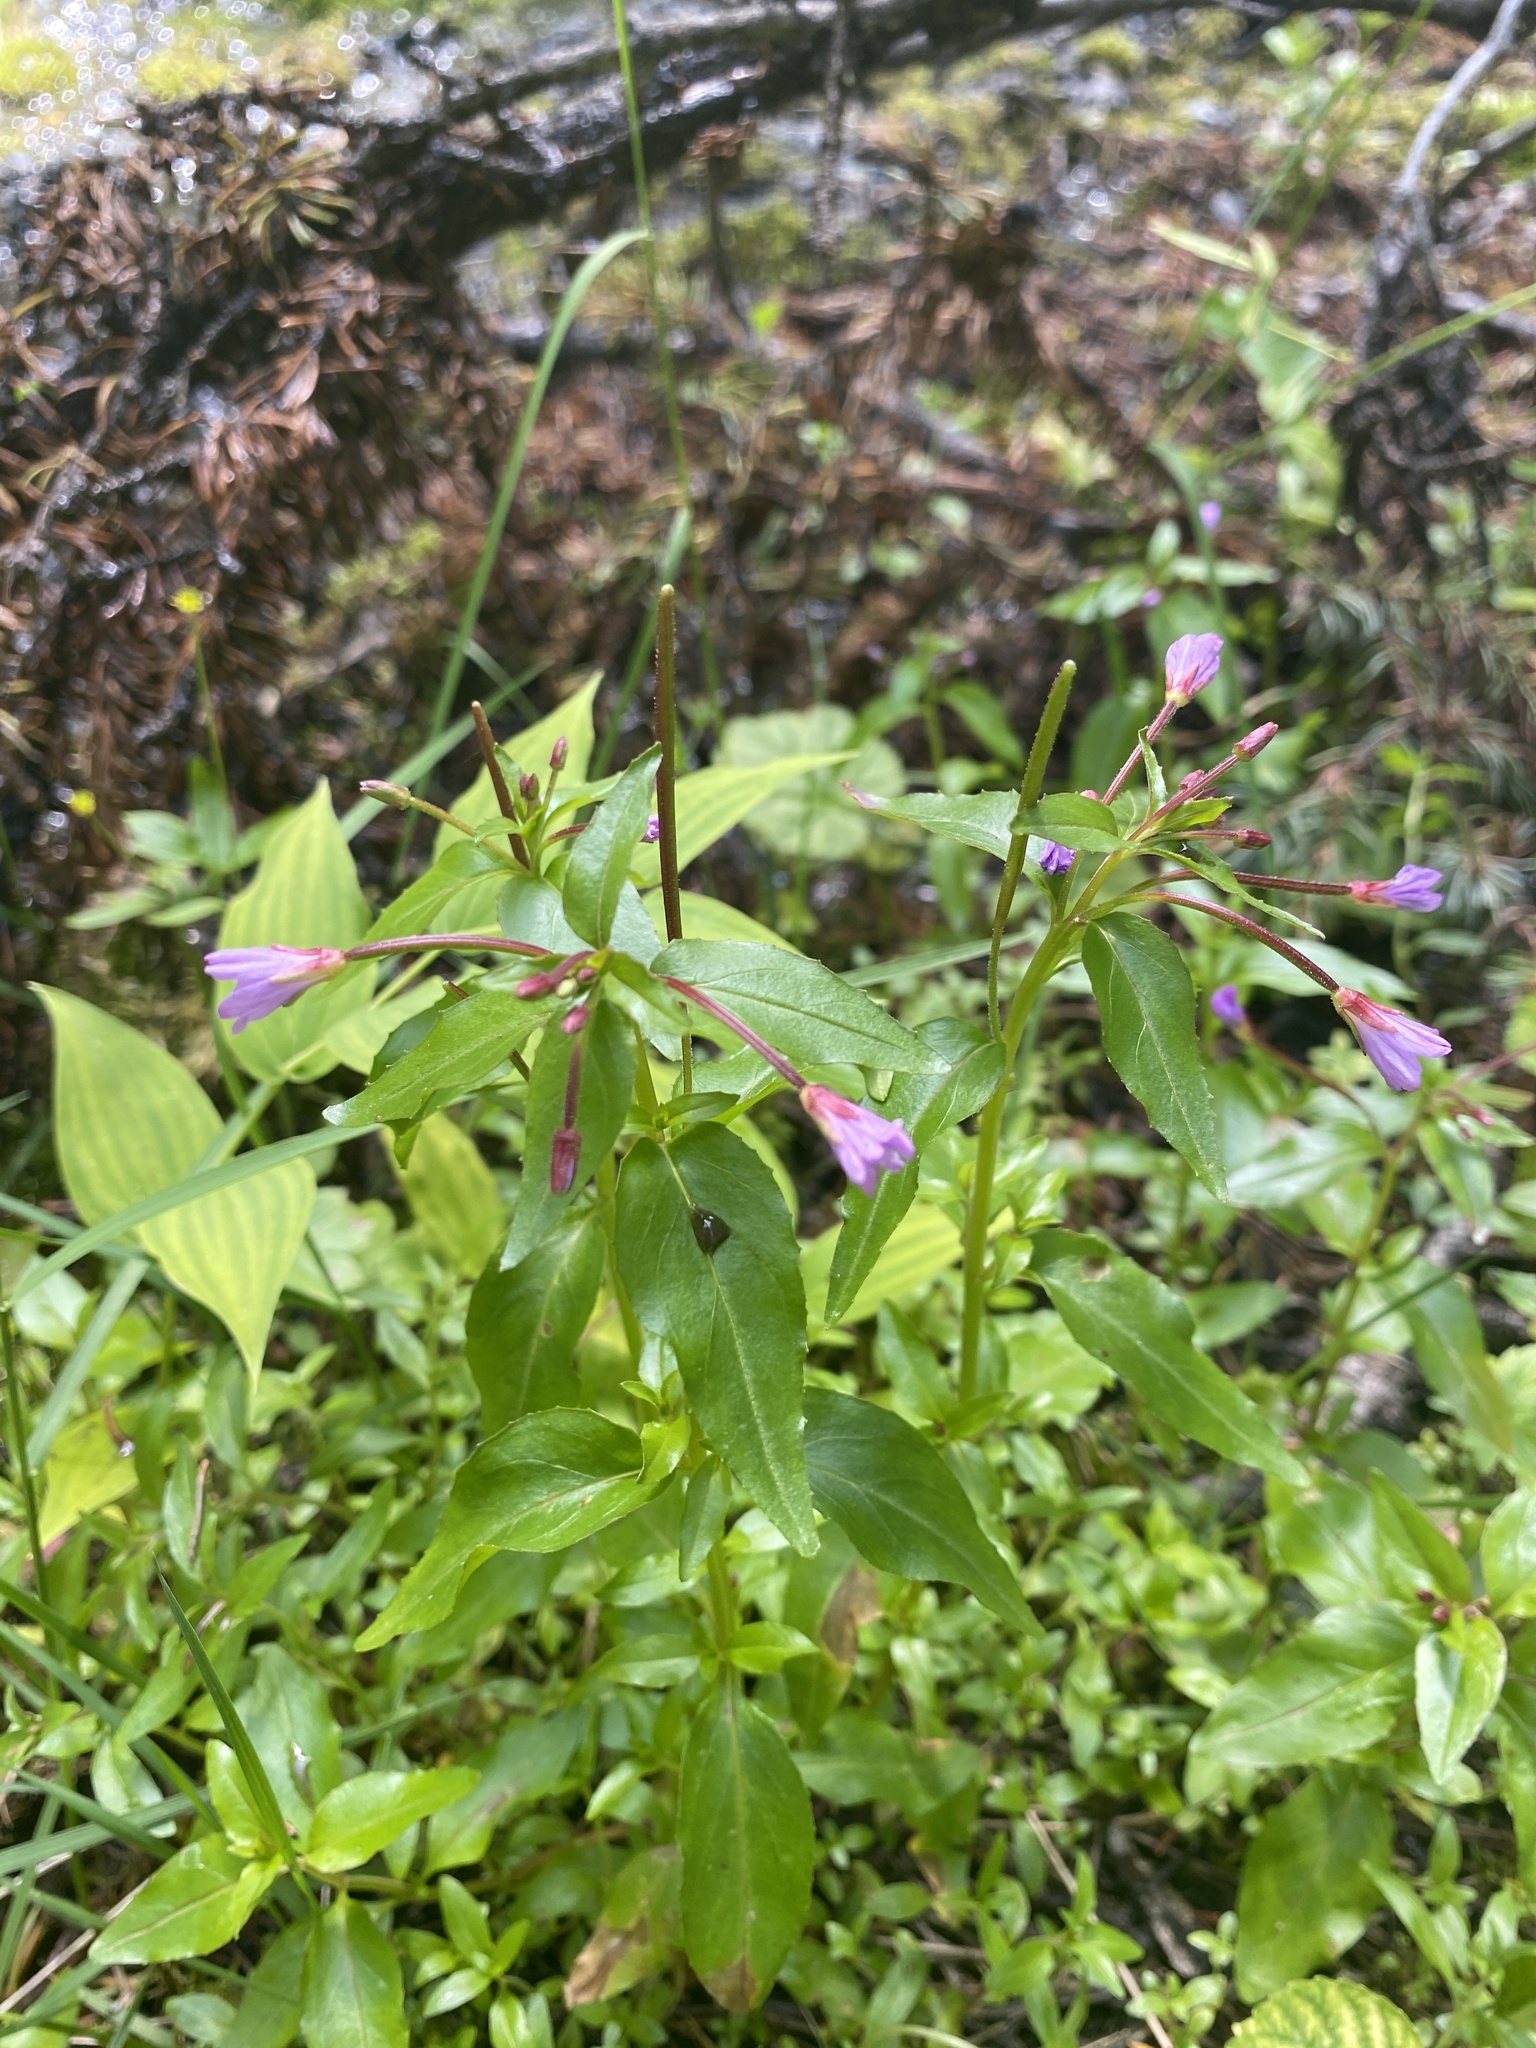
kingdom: Plantae
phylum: Tracheophyta
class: Magnoliopsida
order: Myrtales
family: Onagraceae
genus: Epilobium
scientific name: Epilobium ciliatum
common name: American willowherb
